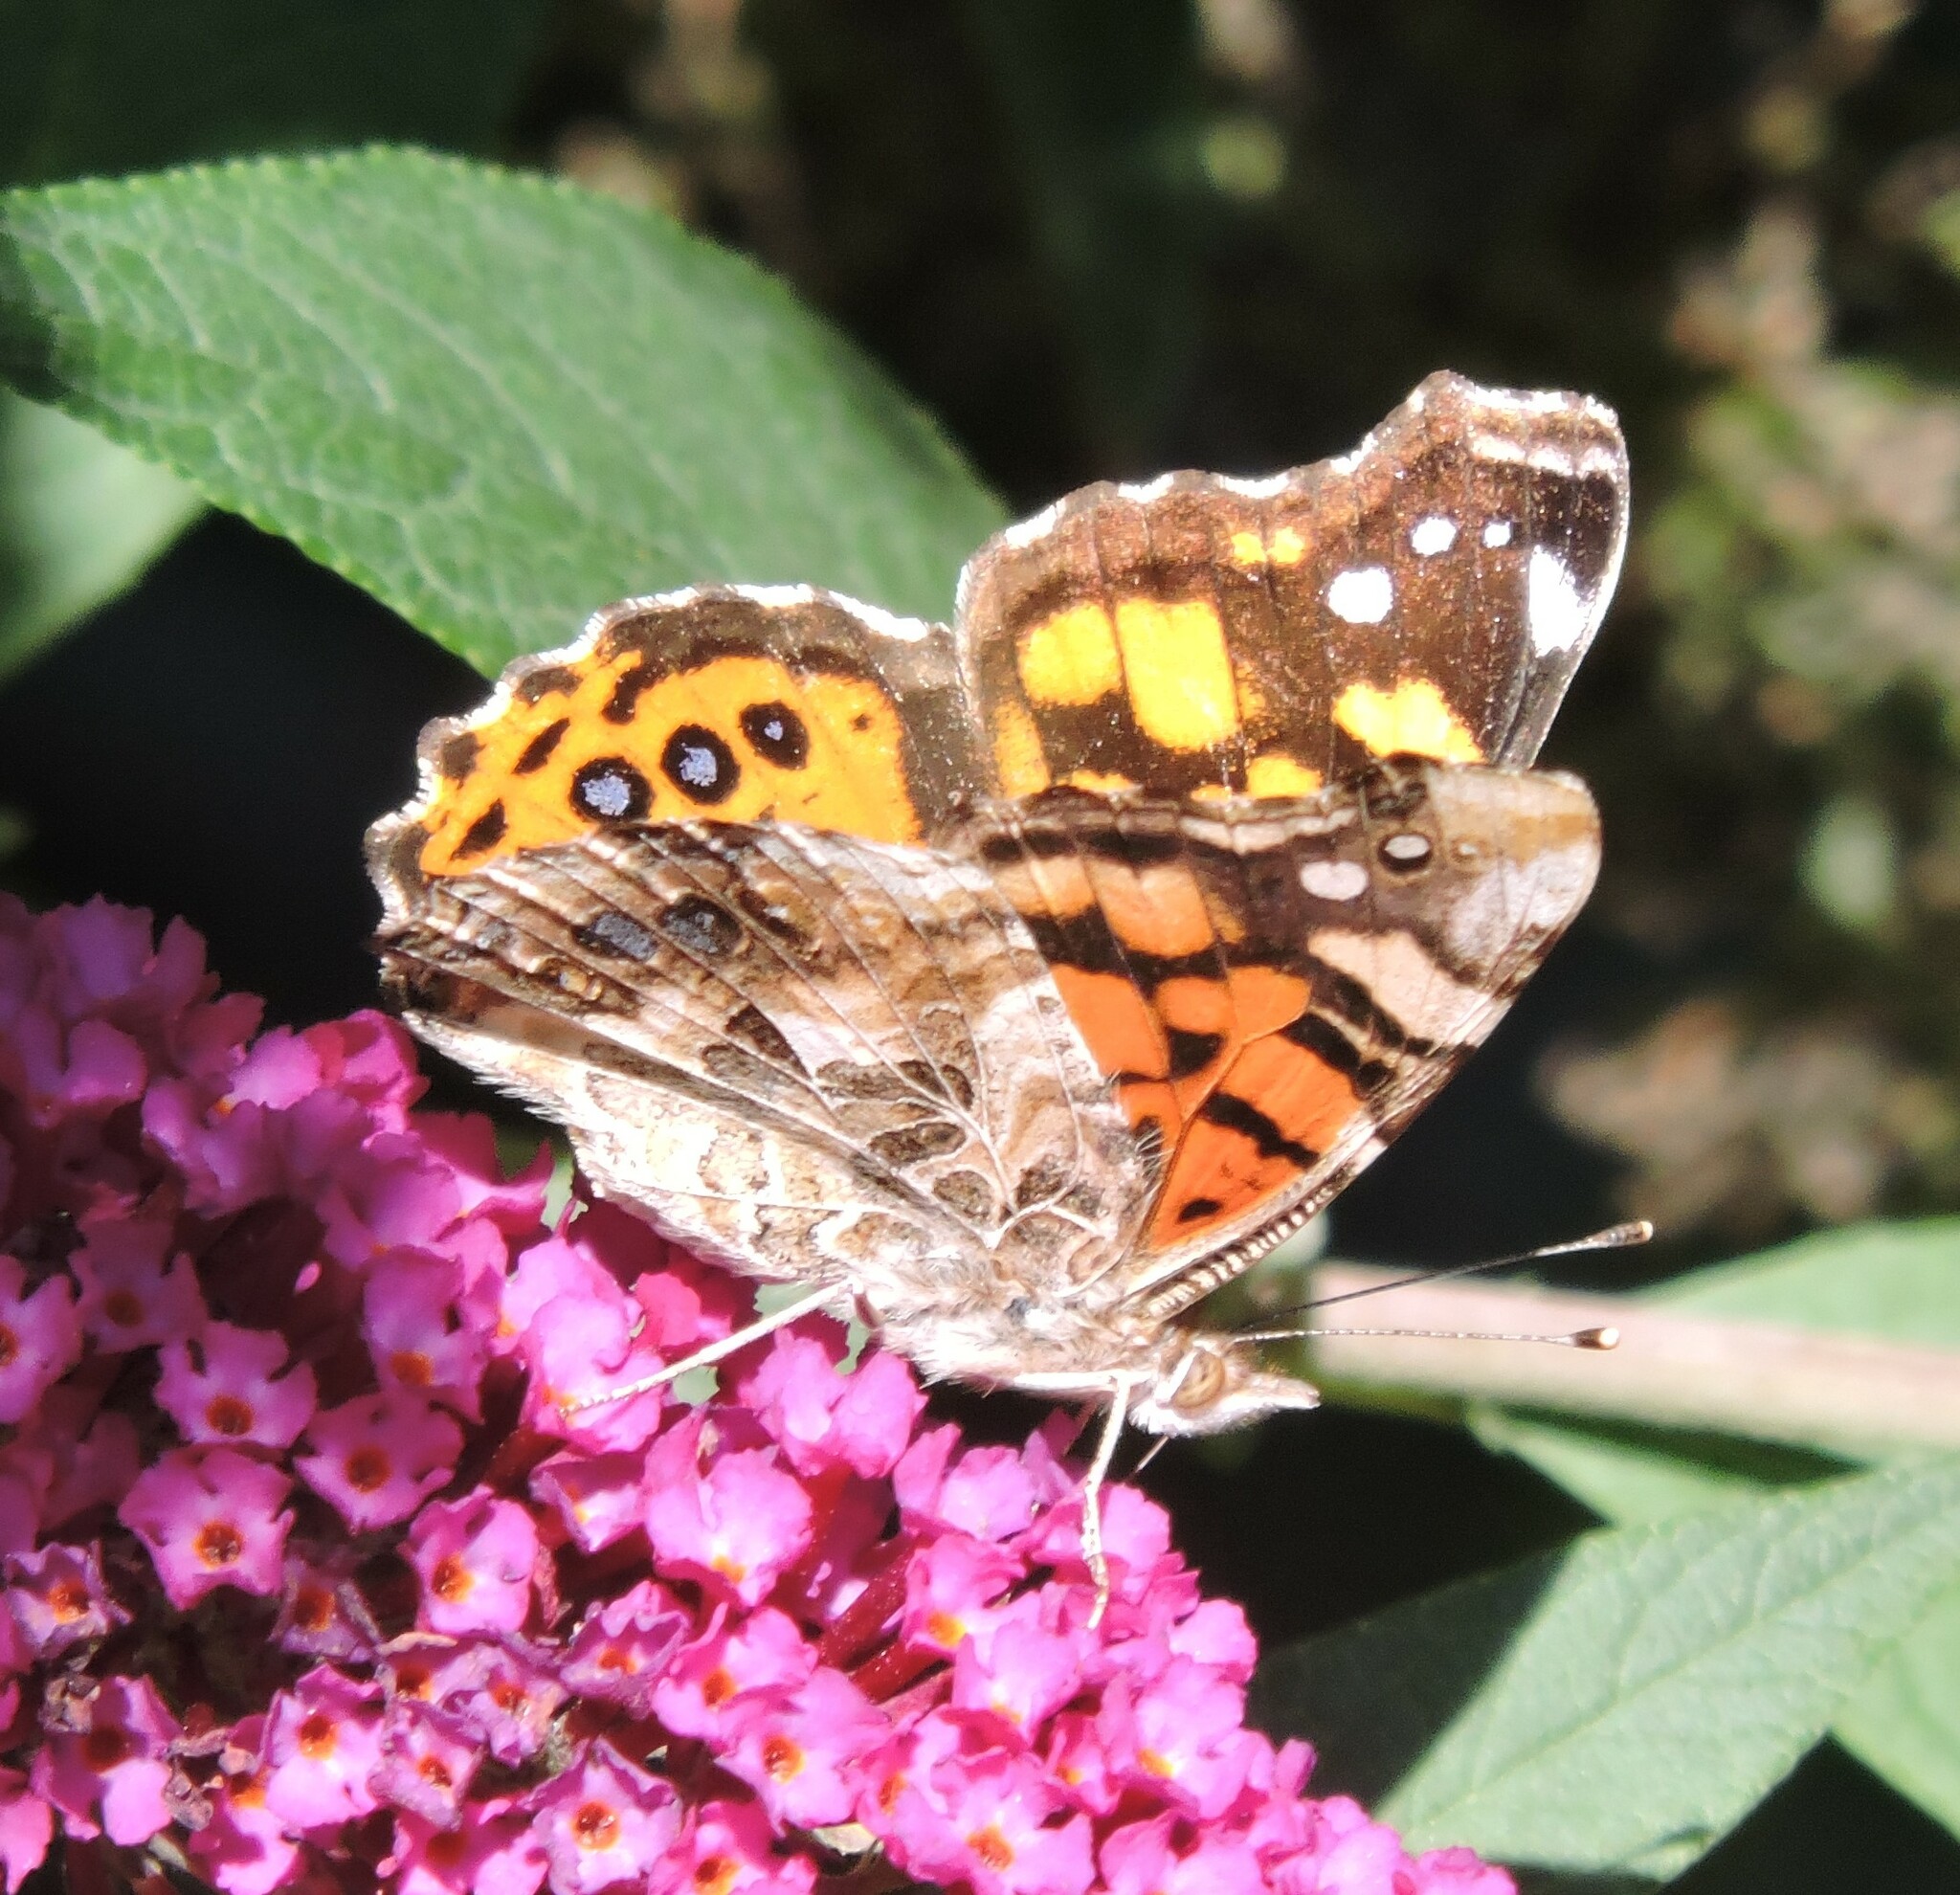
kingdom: Animalia
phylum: Arthropoda
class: Insecta
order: Lepidoptera
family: Nymphalidae
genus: Vanessa
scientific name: Vanessa annabella
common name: West coast lady
